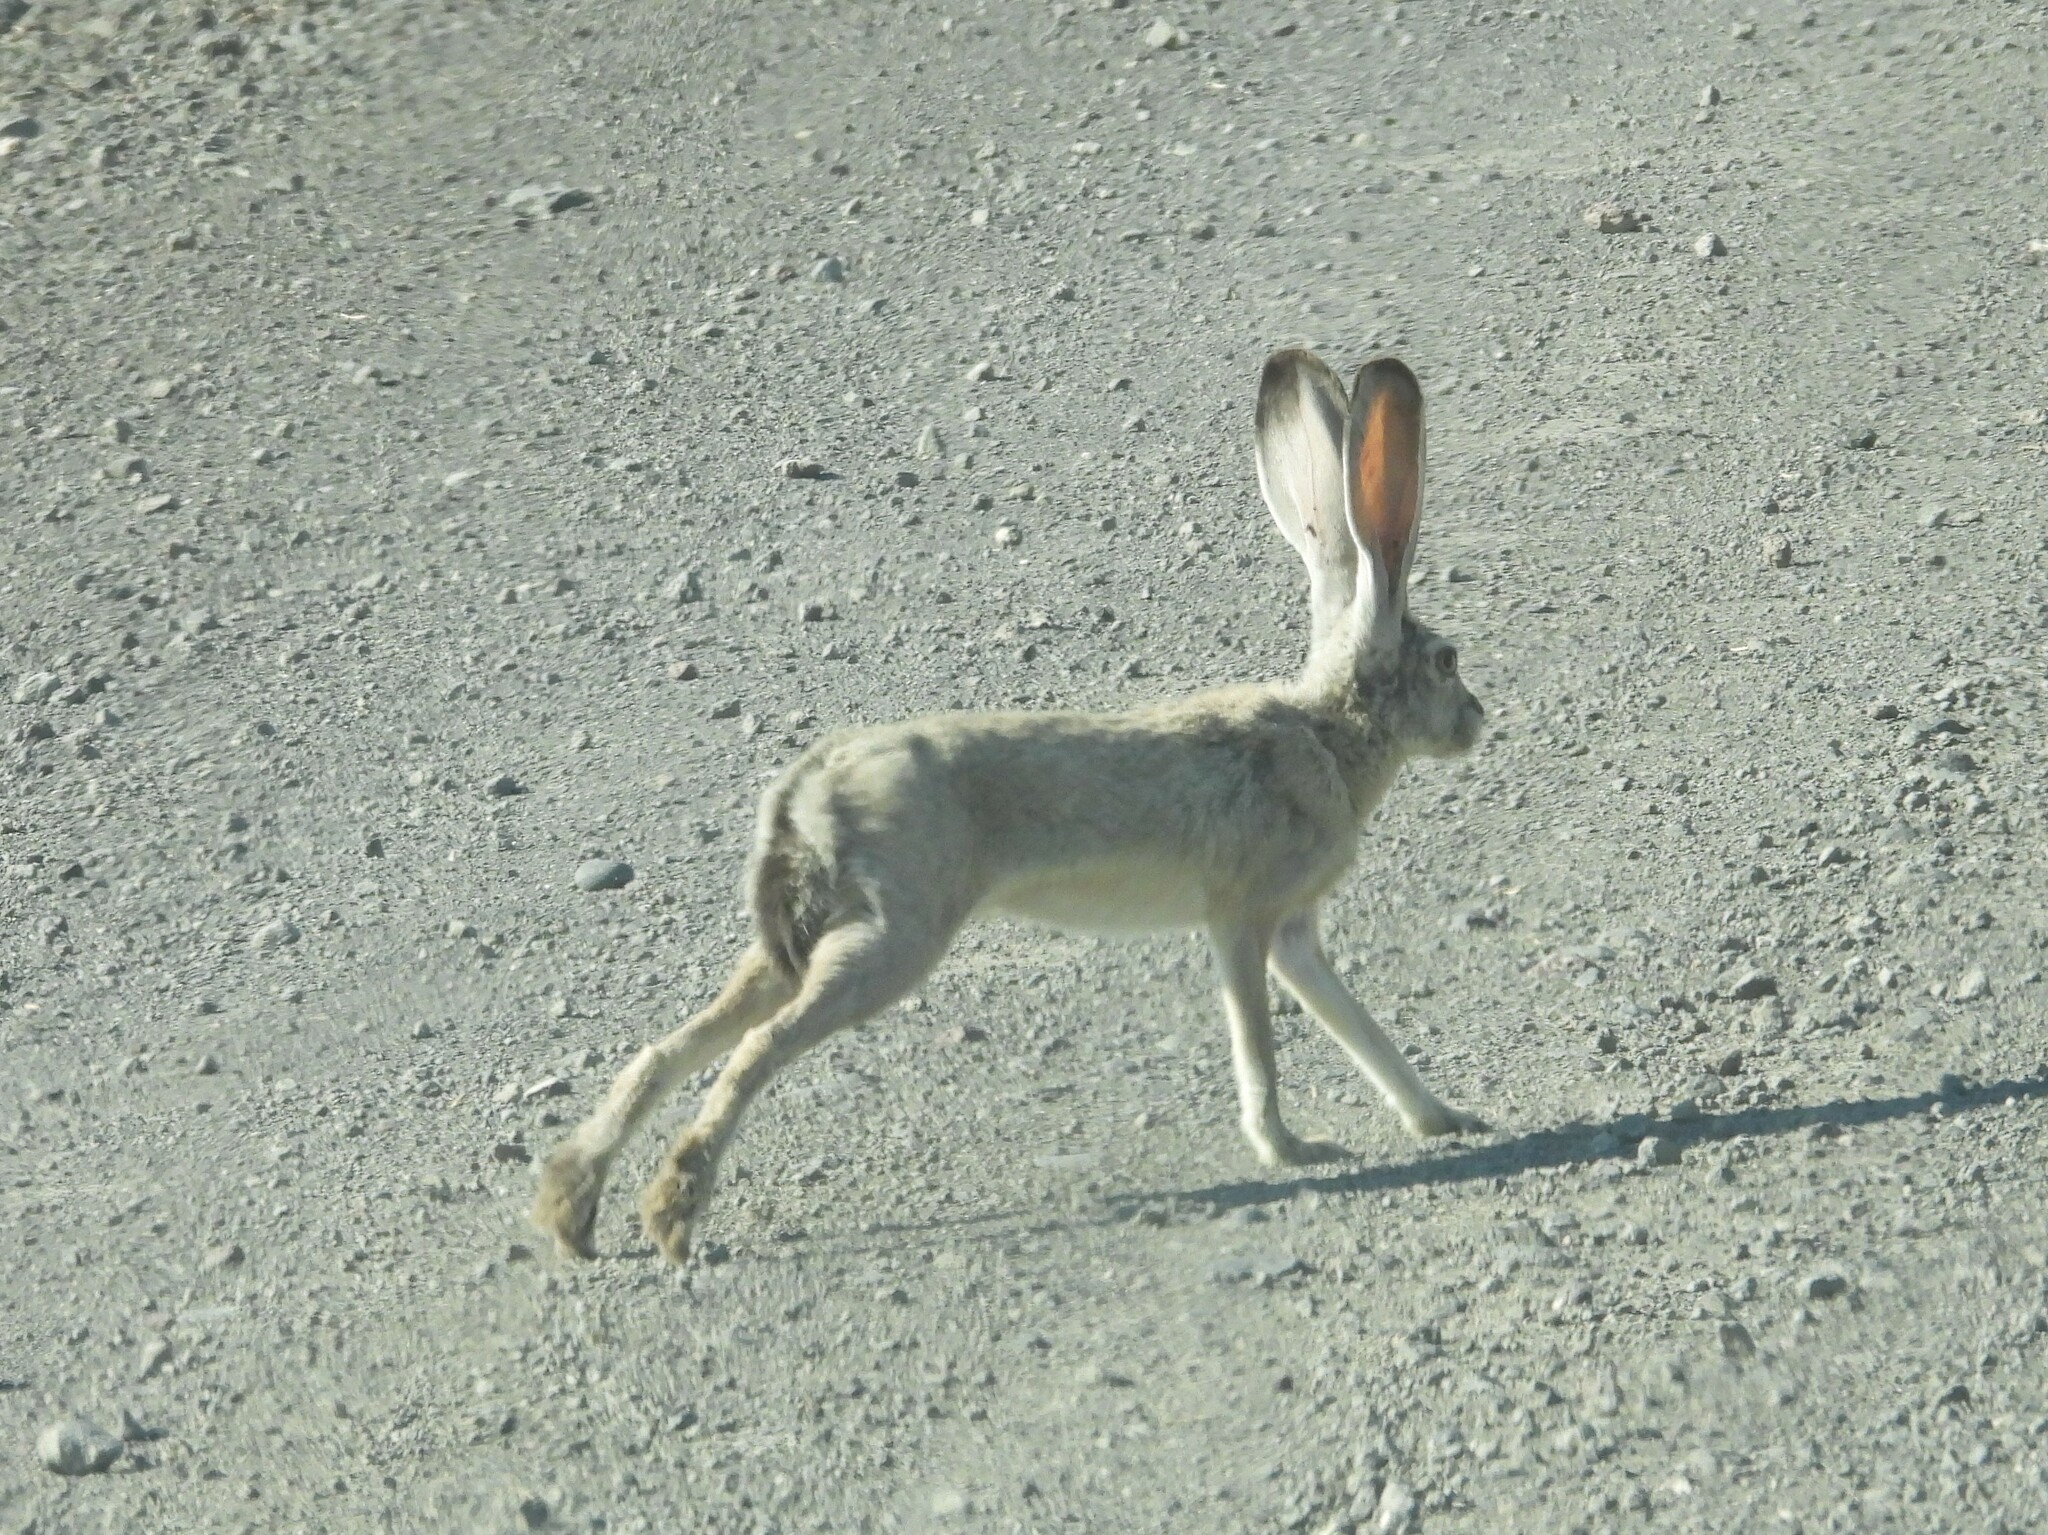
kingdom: Animalia
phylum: Chordata
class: Mammalia
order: Lagomorpha
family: Leporidae
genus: Lepus
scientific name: Lepus californicus
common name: Black-tailed jackrabbit
